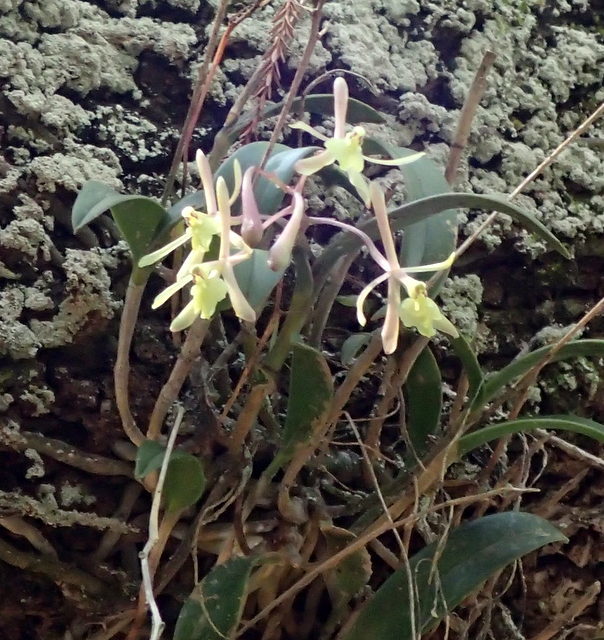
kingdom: Plantae
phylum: Tracheophyta
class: Liliopsida
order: Asparagales
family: Orchidaceae
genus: Epidendrum
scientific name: Epidendrum conopseum
